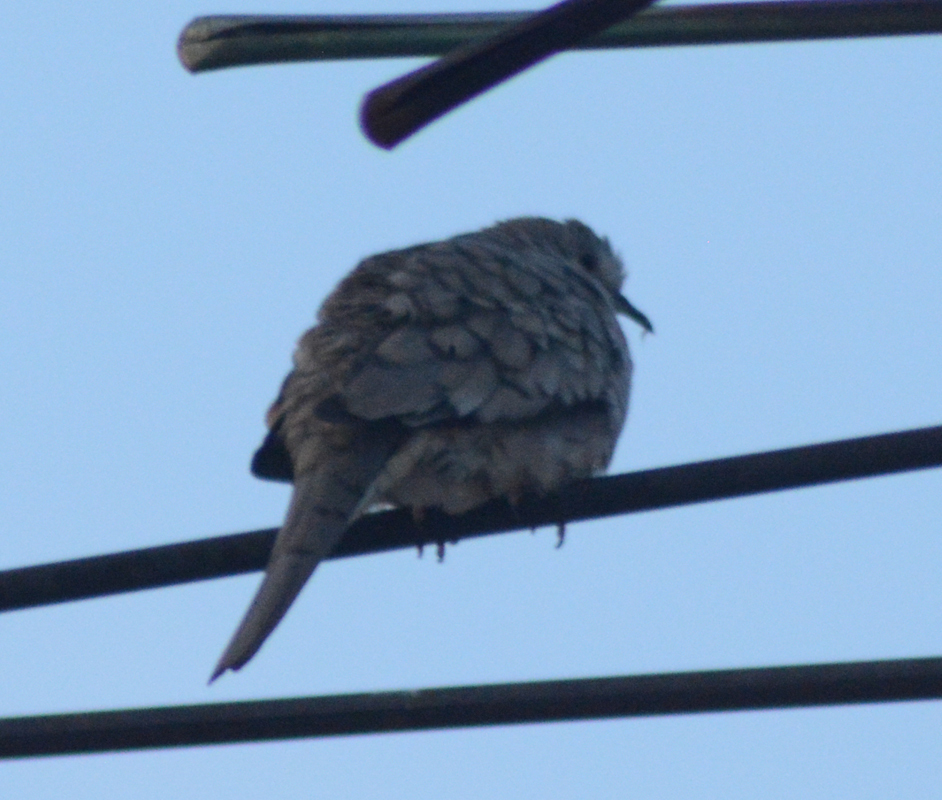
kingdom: Animalia
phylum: Chordata
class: Aves
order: Columbiformes
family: Columbidae
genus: Columbina
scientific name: Columbina inca
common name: Inca dove
